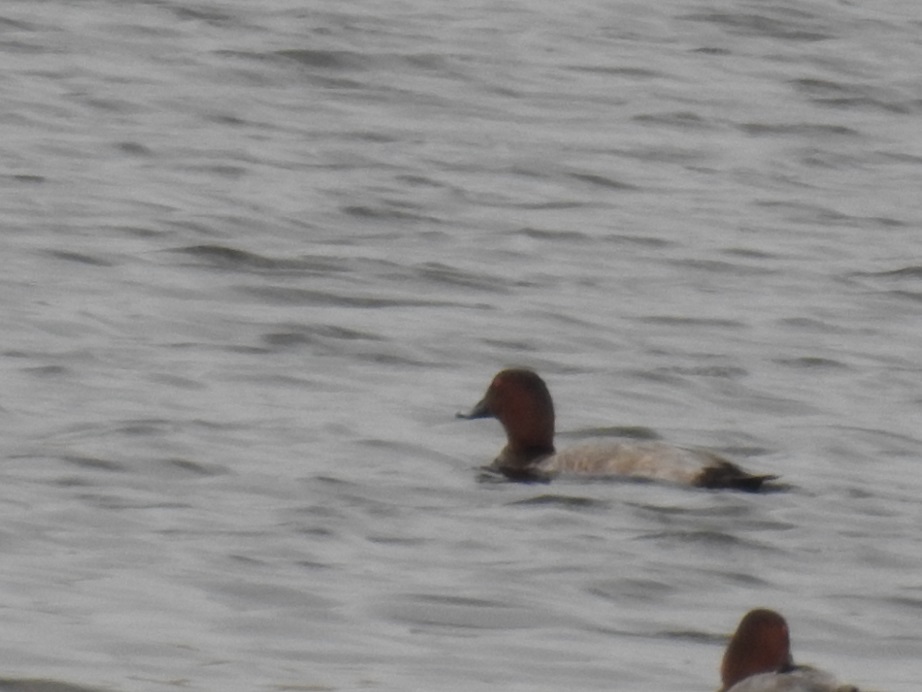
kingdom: Animalia
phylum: Chordata
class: Aves
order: Anseriformes
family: Anatidae
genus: Aythya
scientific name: Aythya ferina
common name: Common pochard
